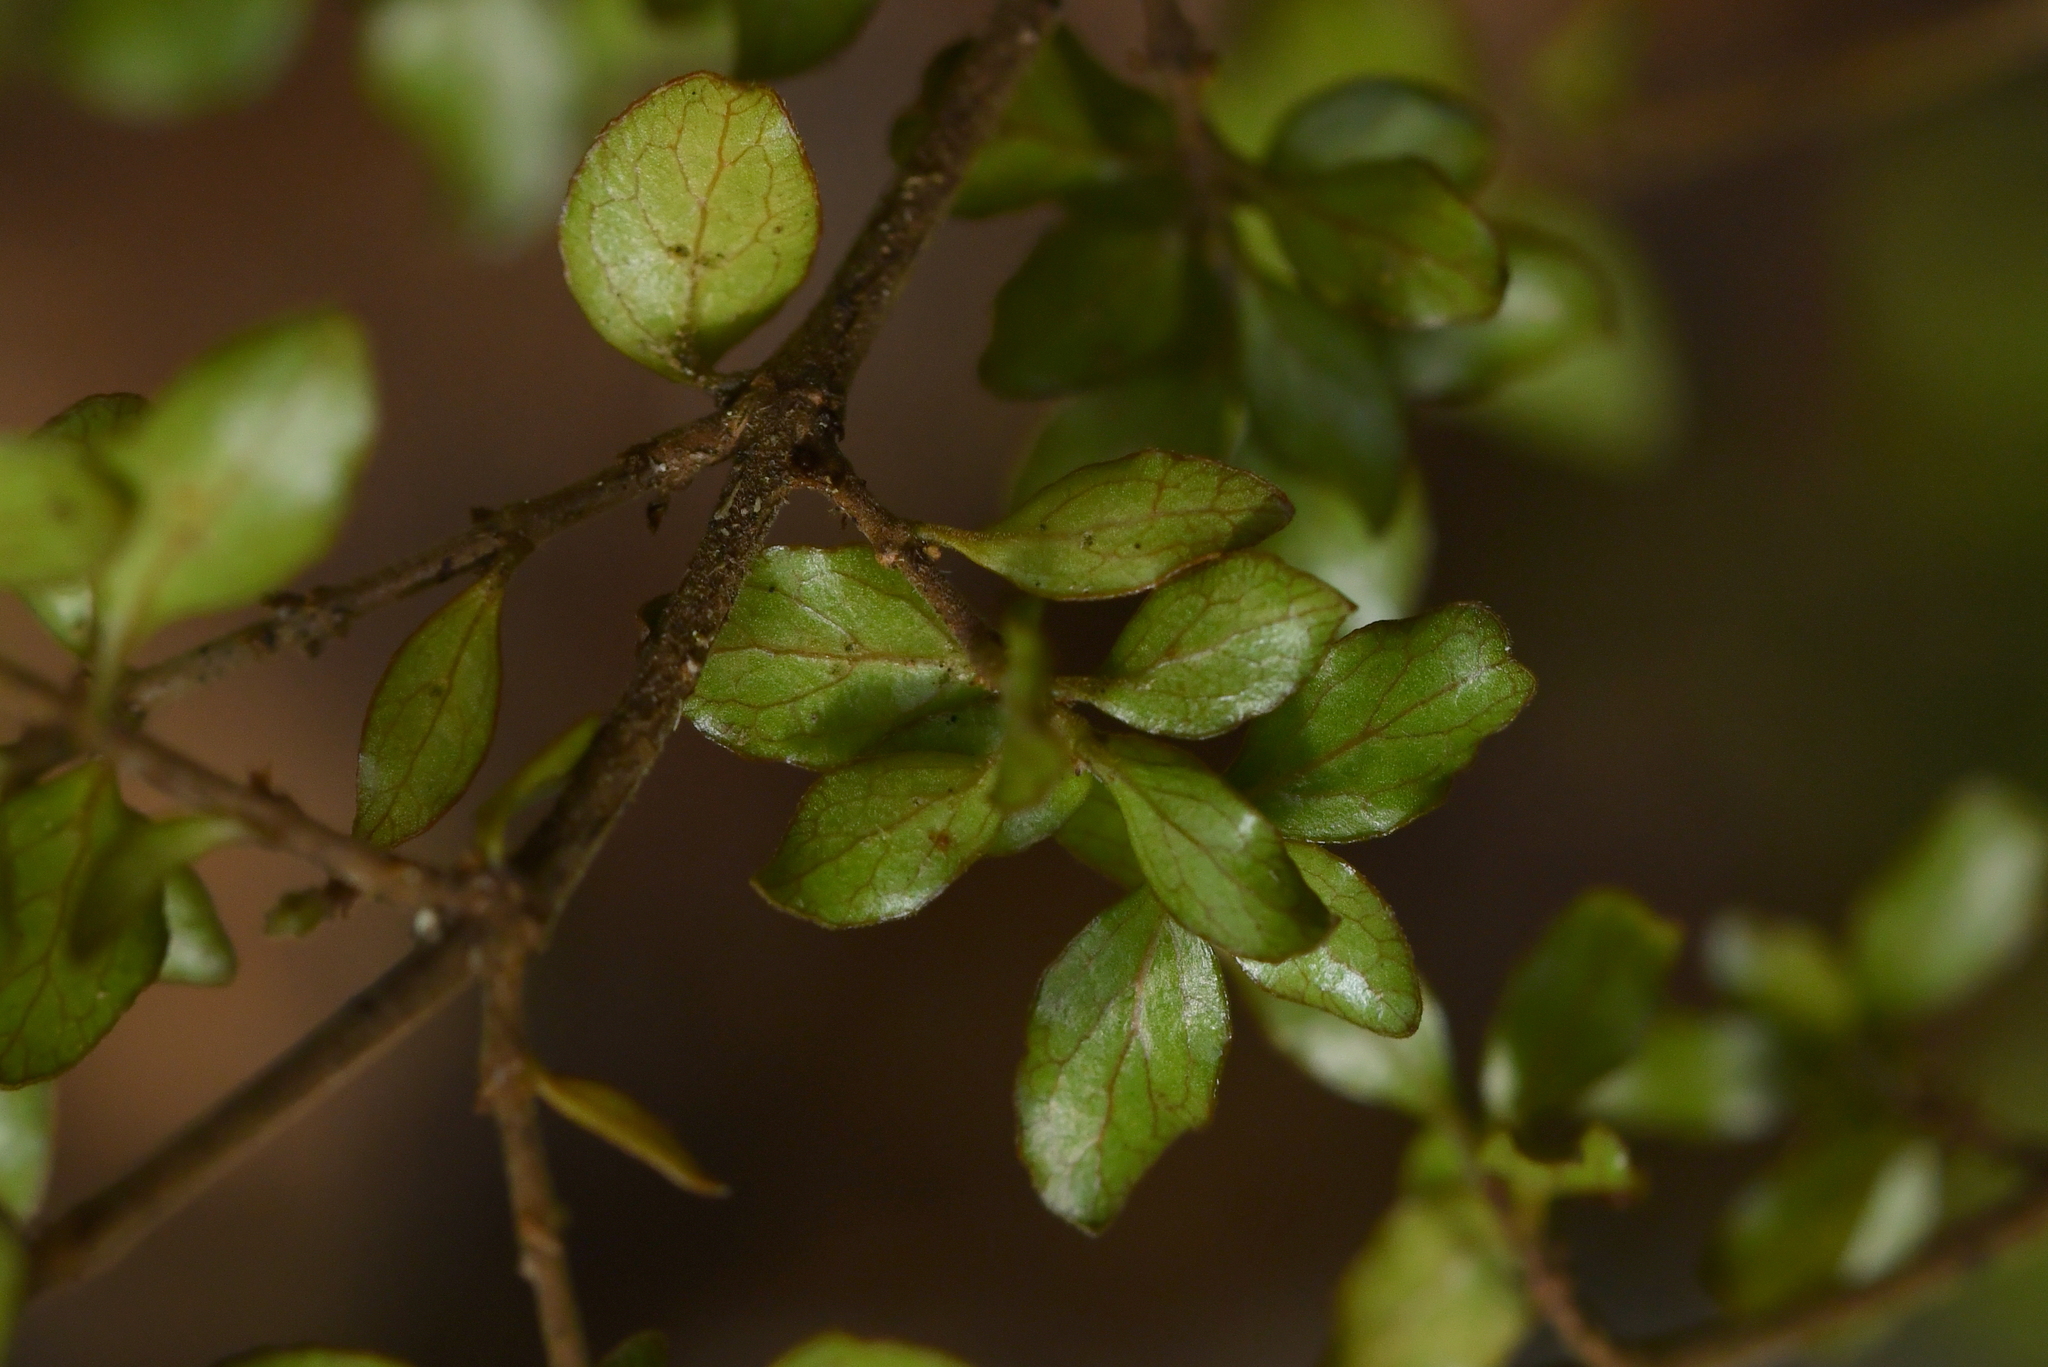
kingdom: Plantae
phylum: Tracheophyta
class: Magnoliopsida
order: Gentianales
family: Rubiaceae
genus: Coprosma
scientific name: Coprosma rhamnoides
